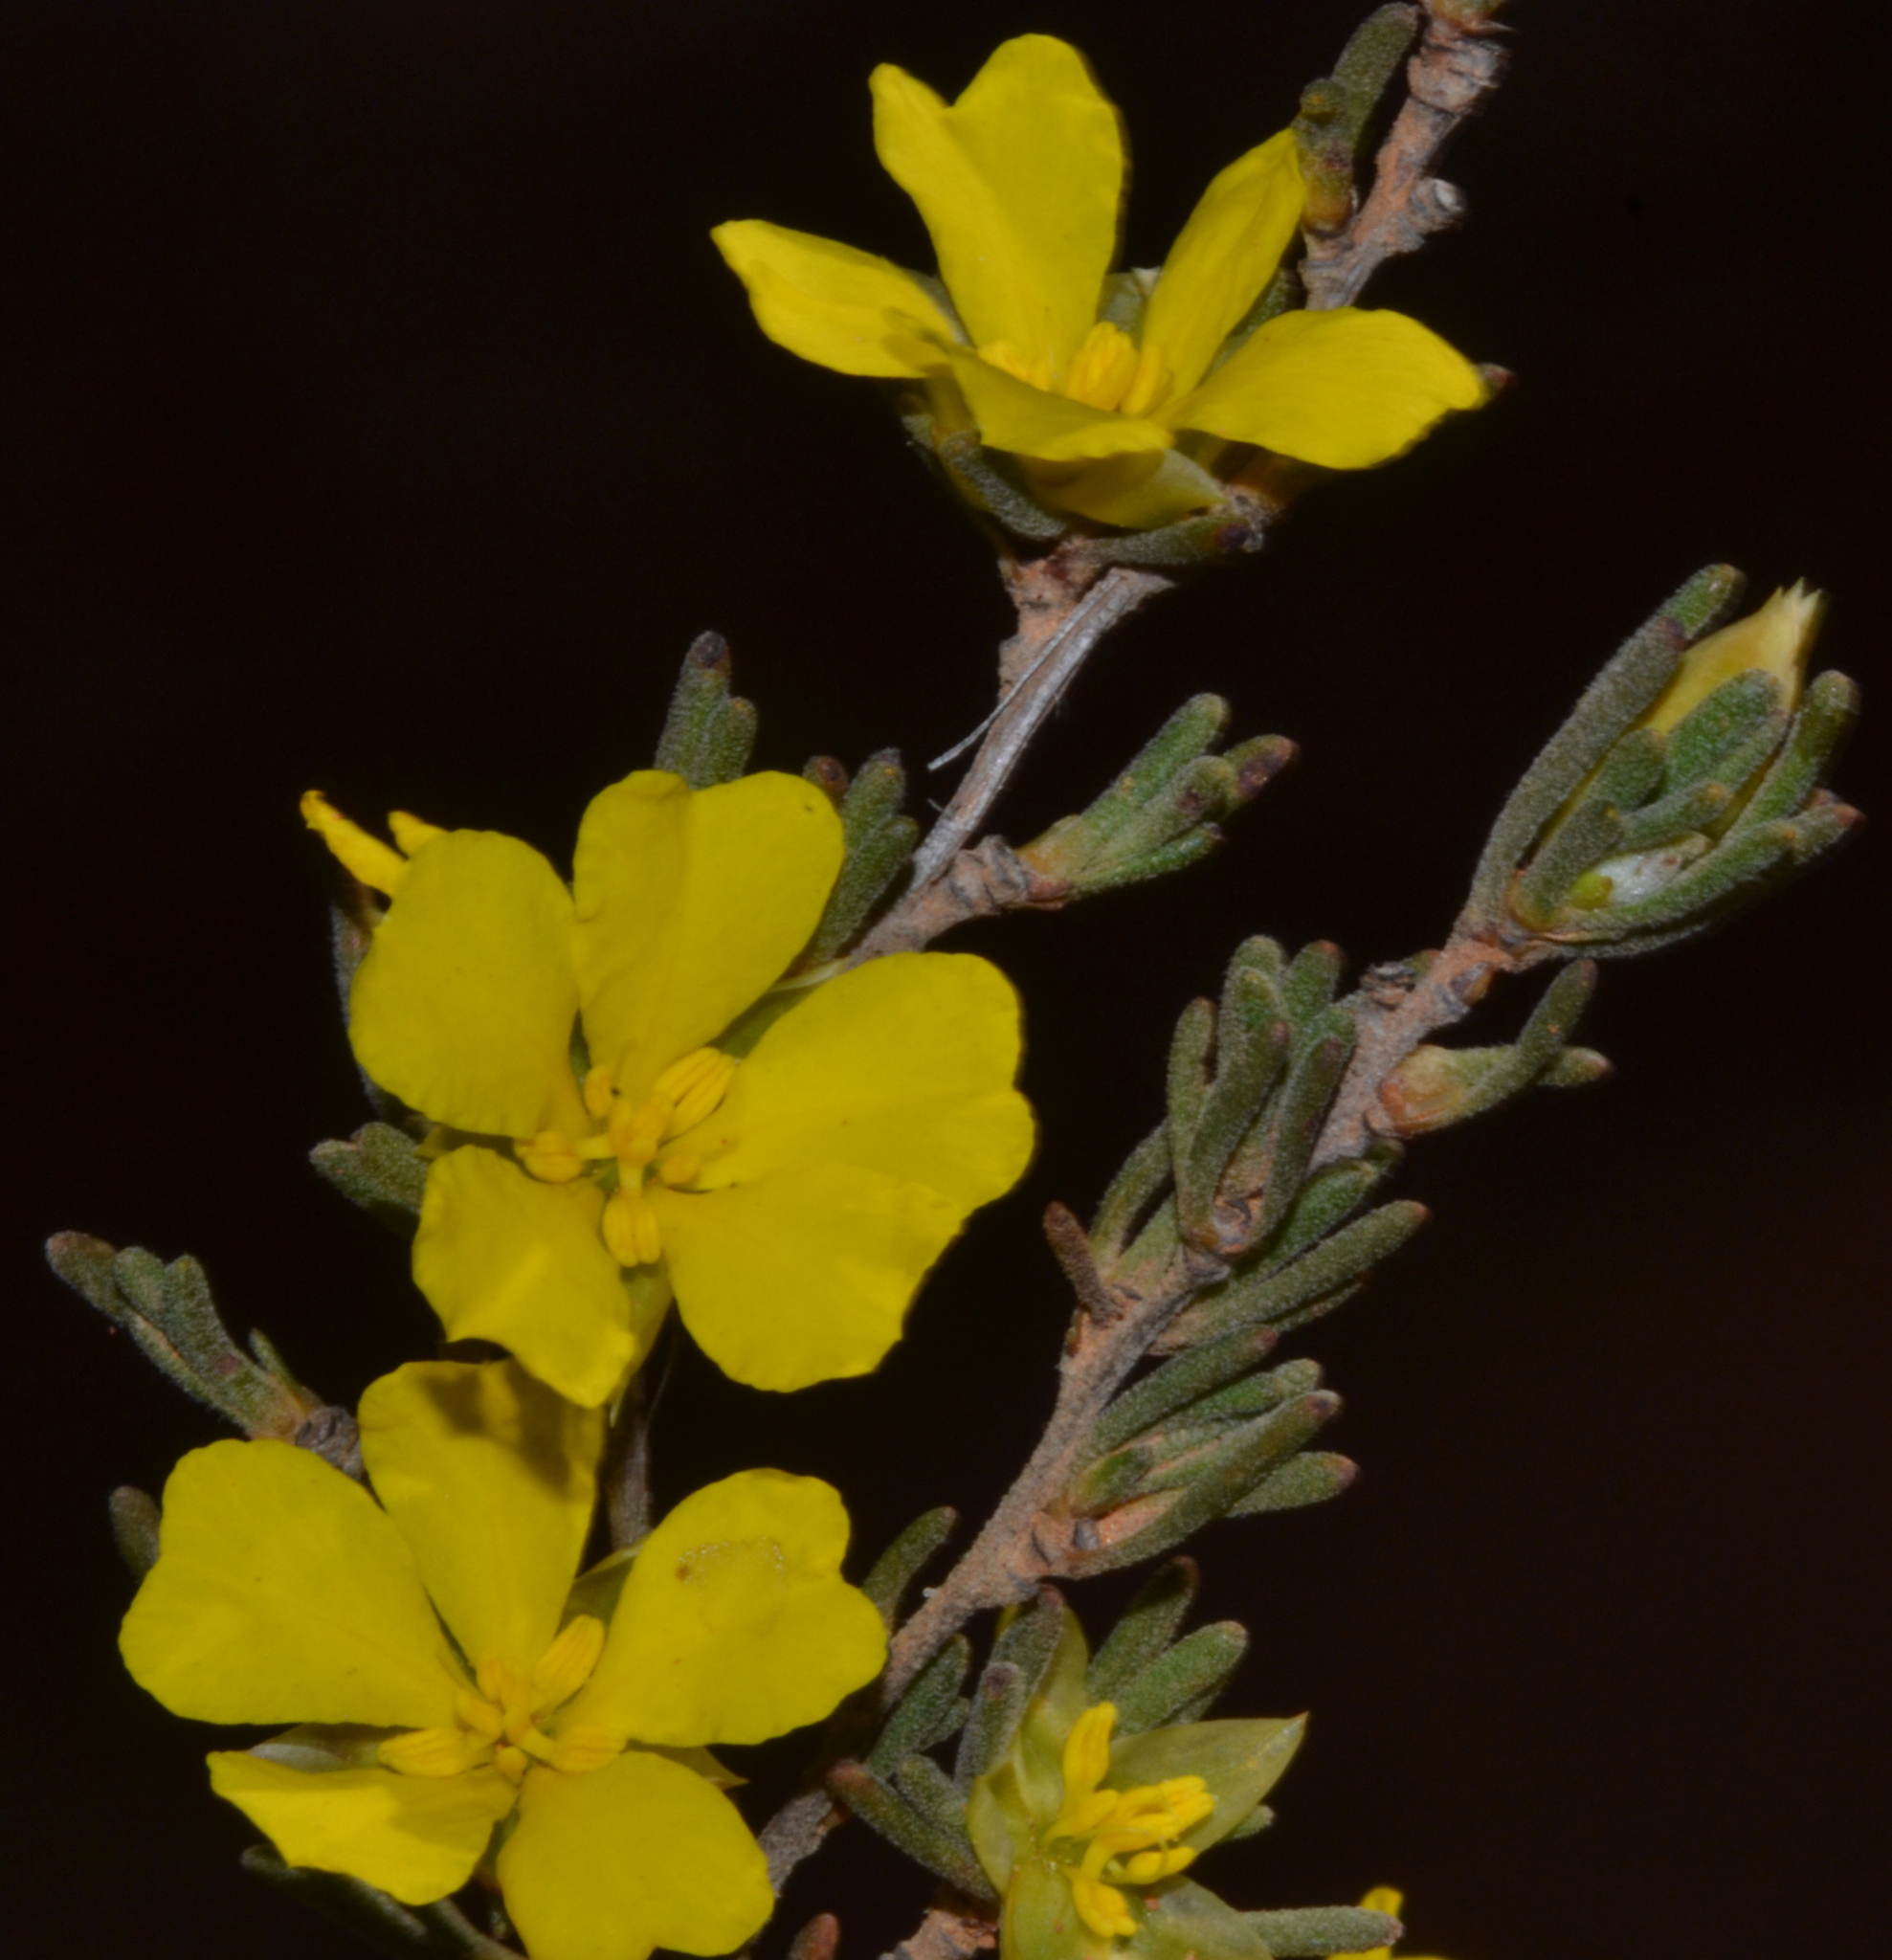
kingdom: Plantae
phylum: Tracheophyta
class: Magnoliopsida
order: Dilleniales
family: Dilleniaceae
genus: Hibbertia
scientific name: Hibbertia priceana
